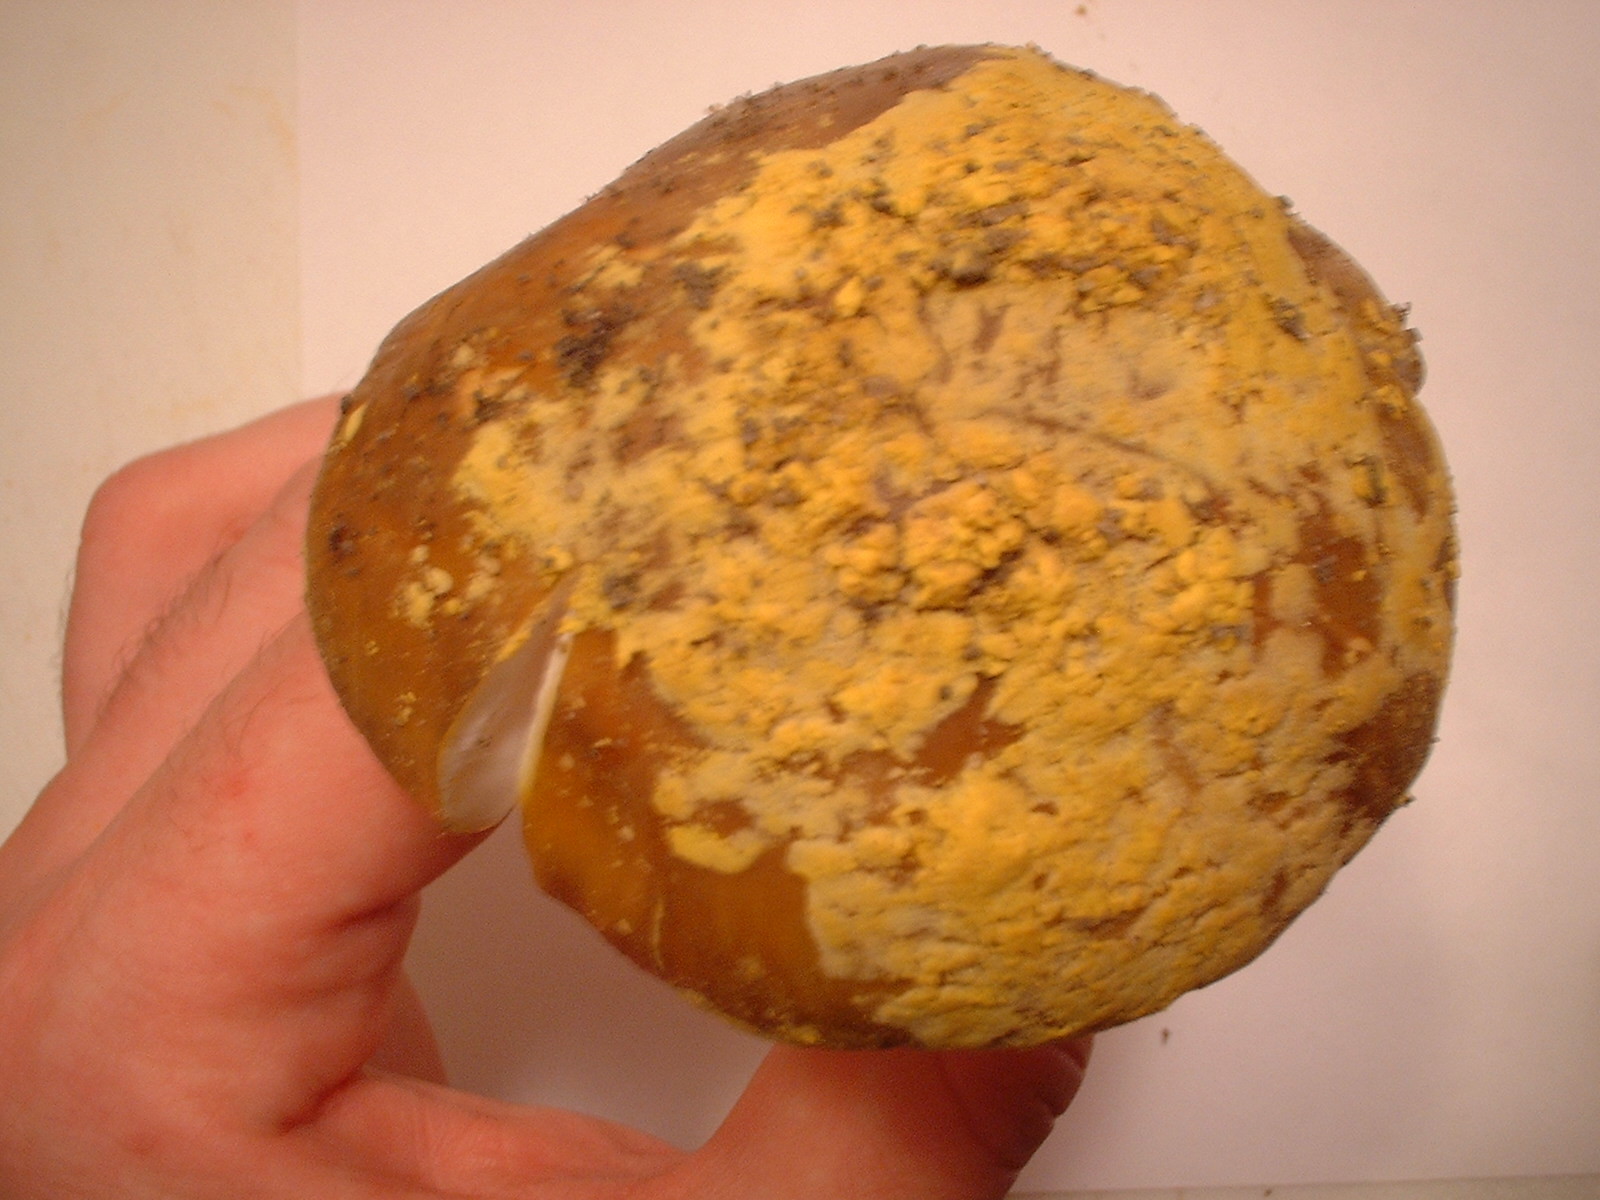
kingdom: Fungi
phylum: Basidiomycota
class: Agaricomycetes
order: Agaricales
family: Amanitaceae
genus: Amanita
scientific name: Amanita augusta
